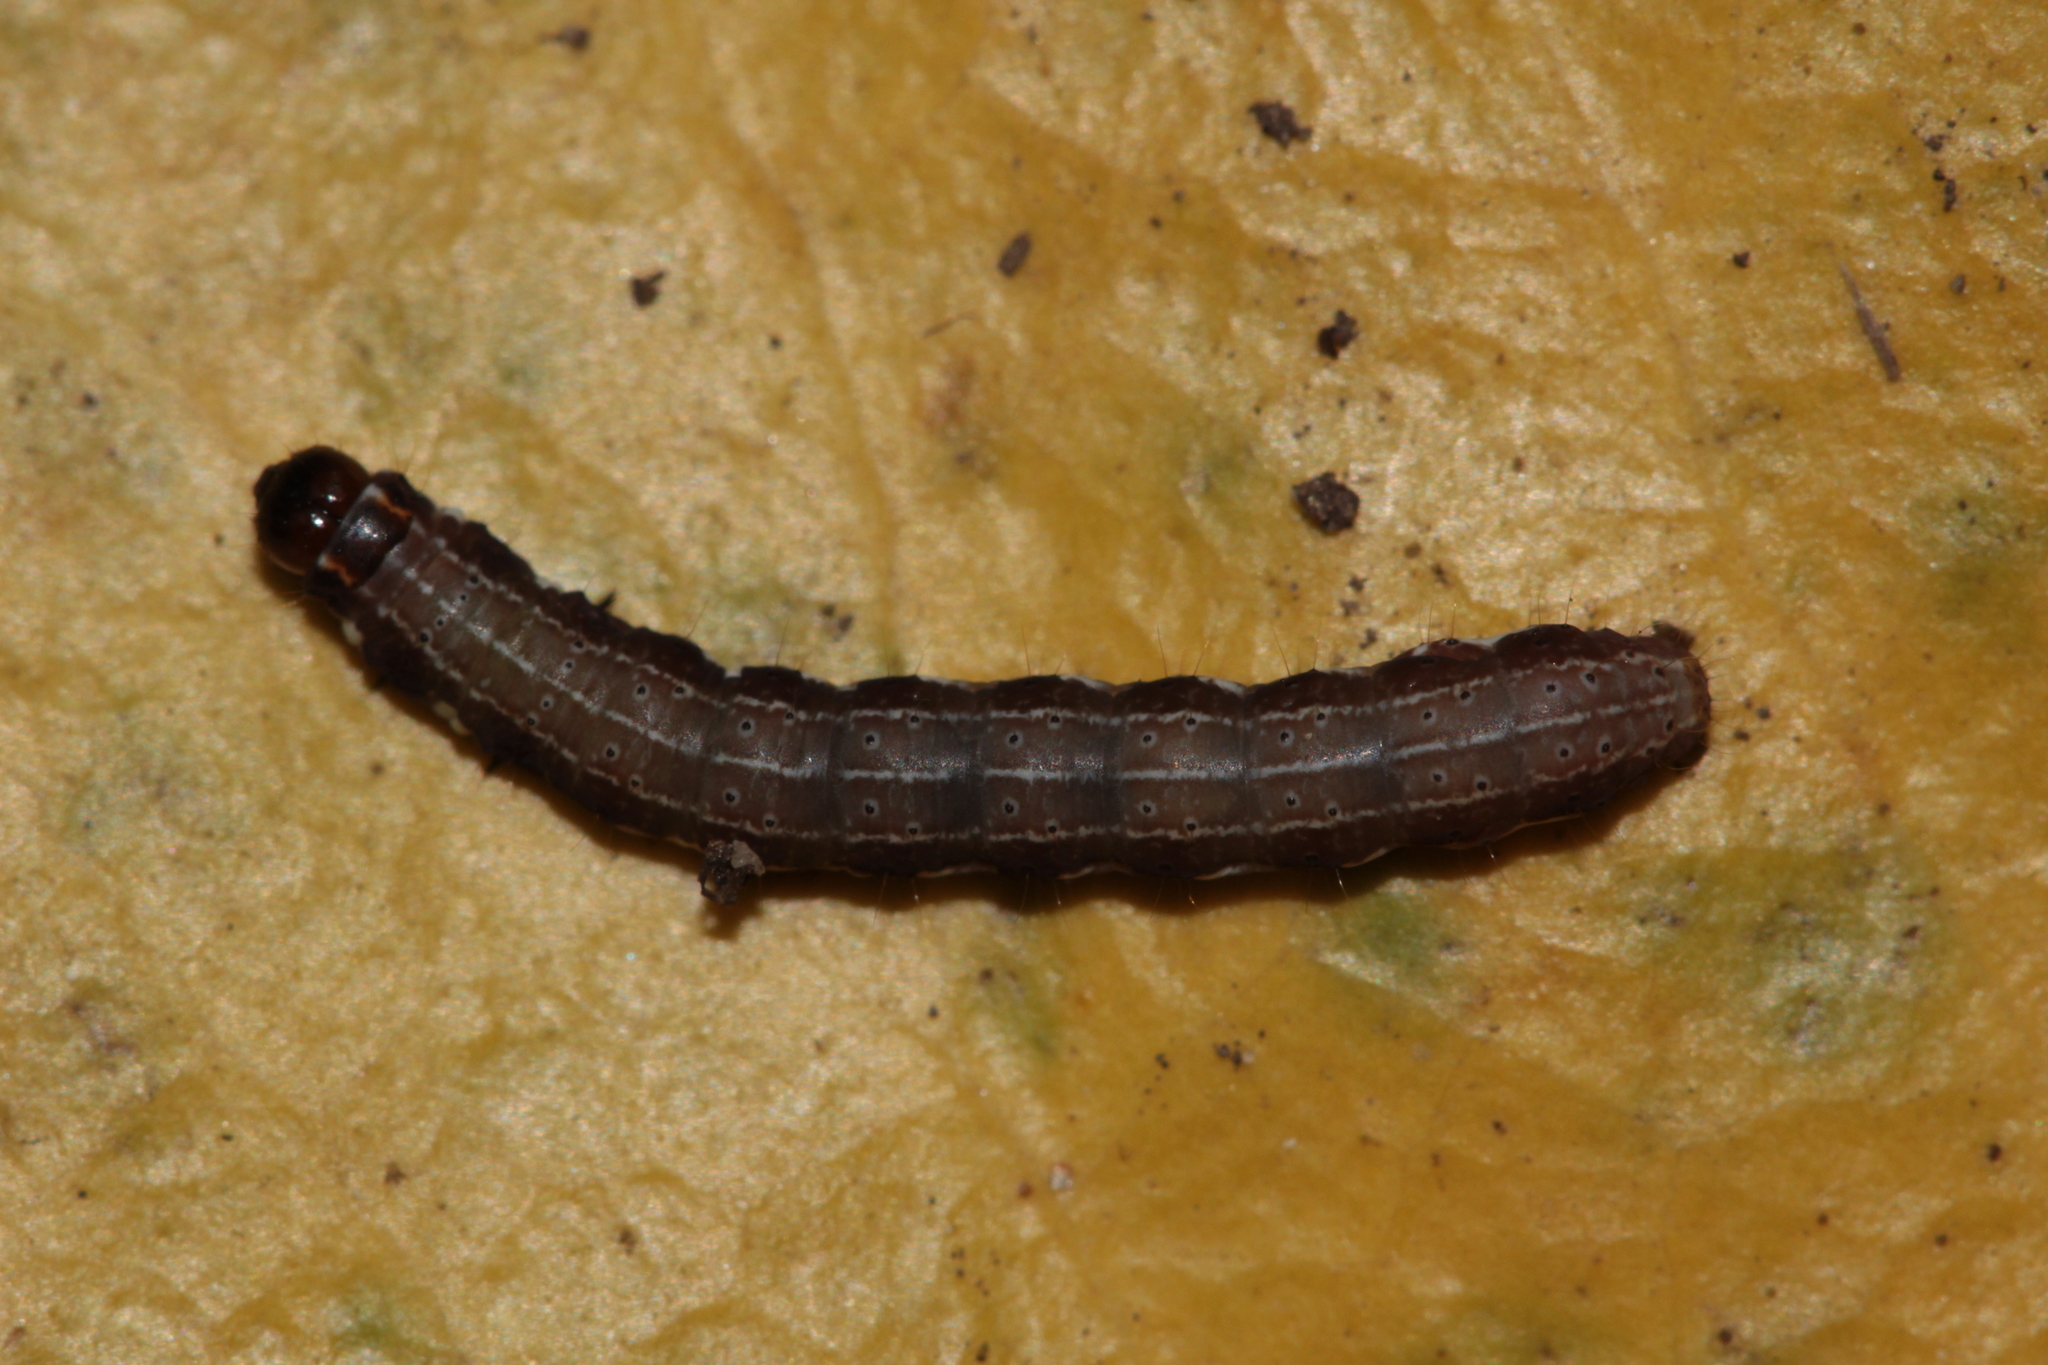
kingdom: Animalia
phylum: Arthropoda
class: Insecta
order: Lepidoptera
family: Noctuidae
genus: Eupsilia
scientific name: Eupsilia transversa
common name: Satellite
